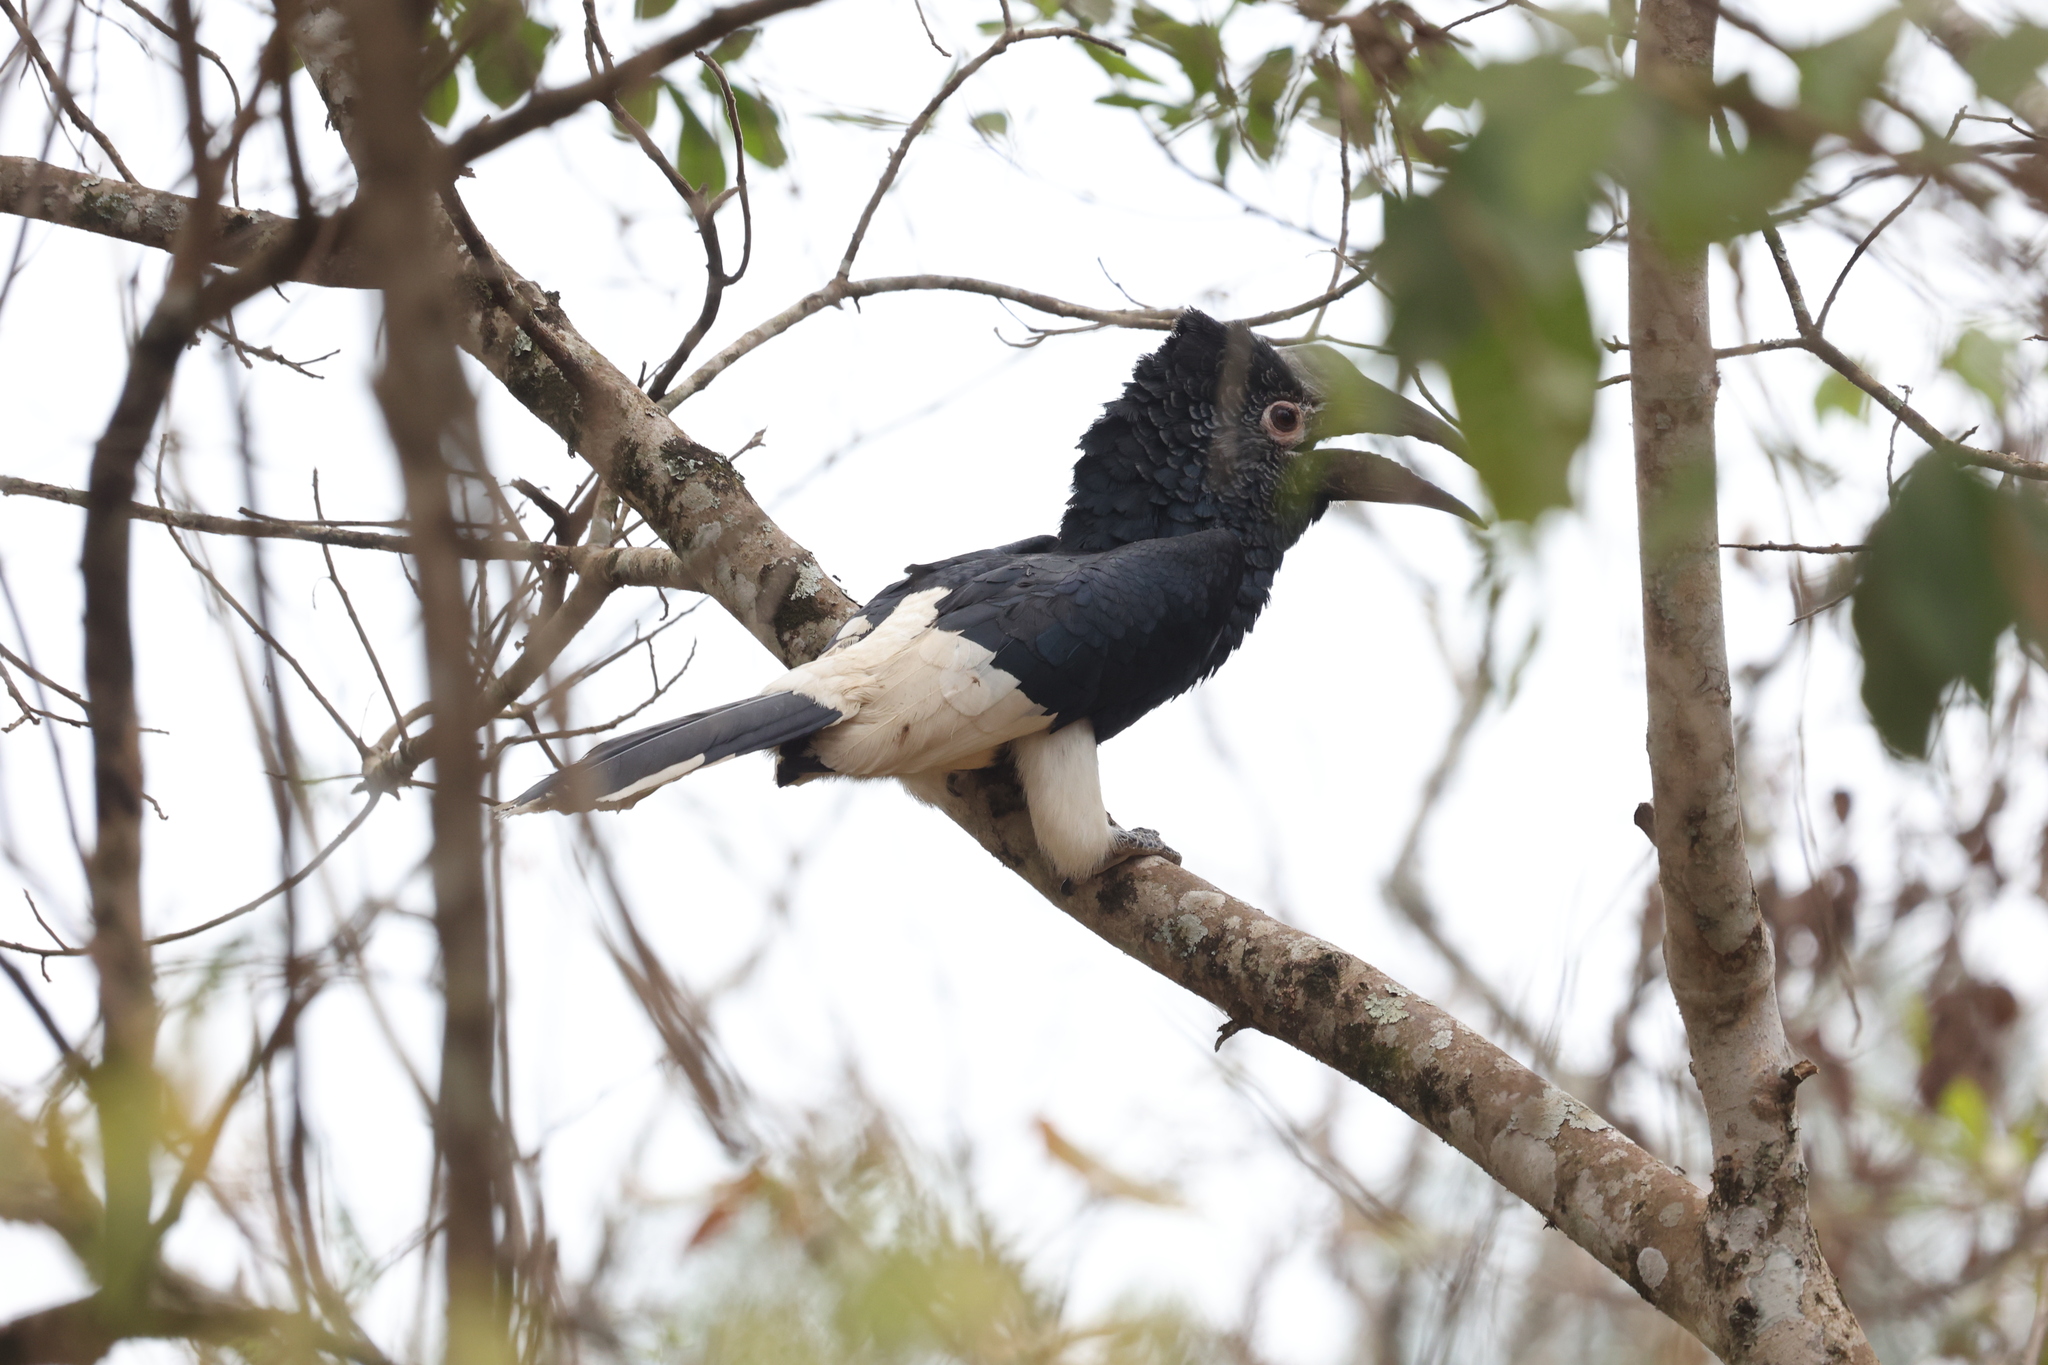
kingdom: Animalia
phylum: Chordata
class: Aves
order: Bucerotiformes
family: Bucerotidae
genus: Bycanistes
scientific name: Bycanistes subcylindricus
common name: Black-and-white-casqued hornbill
